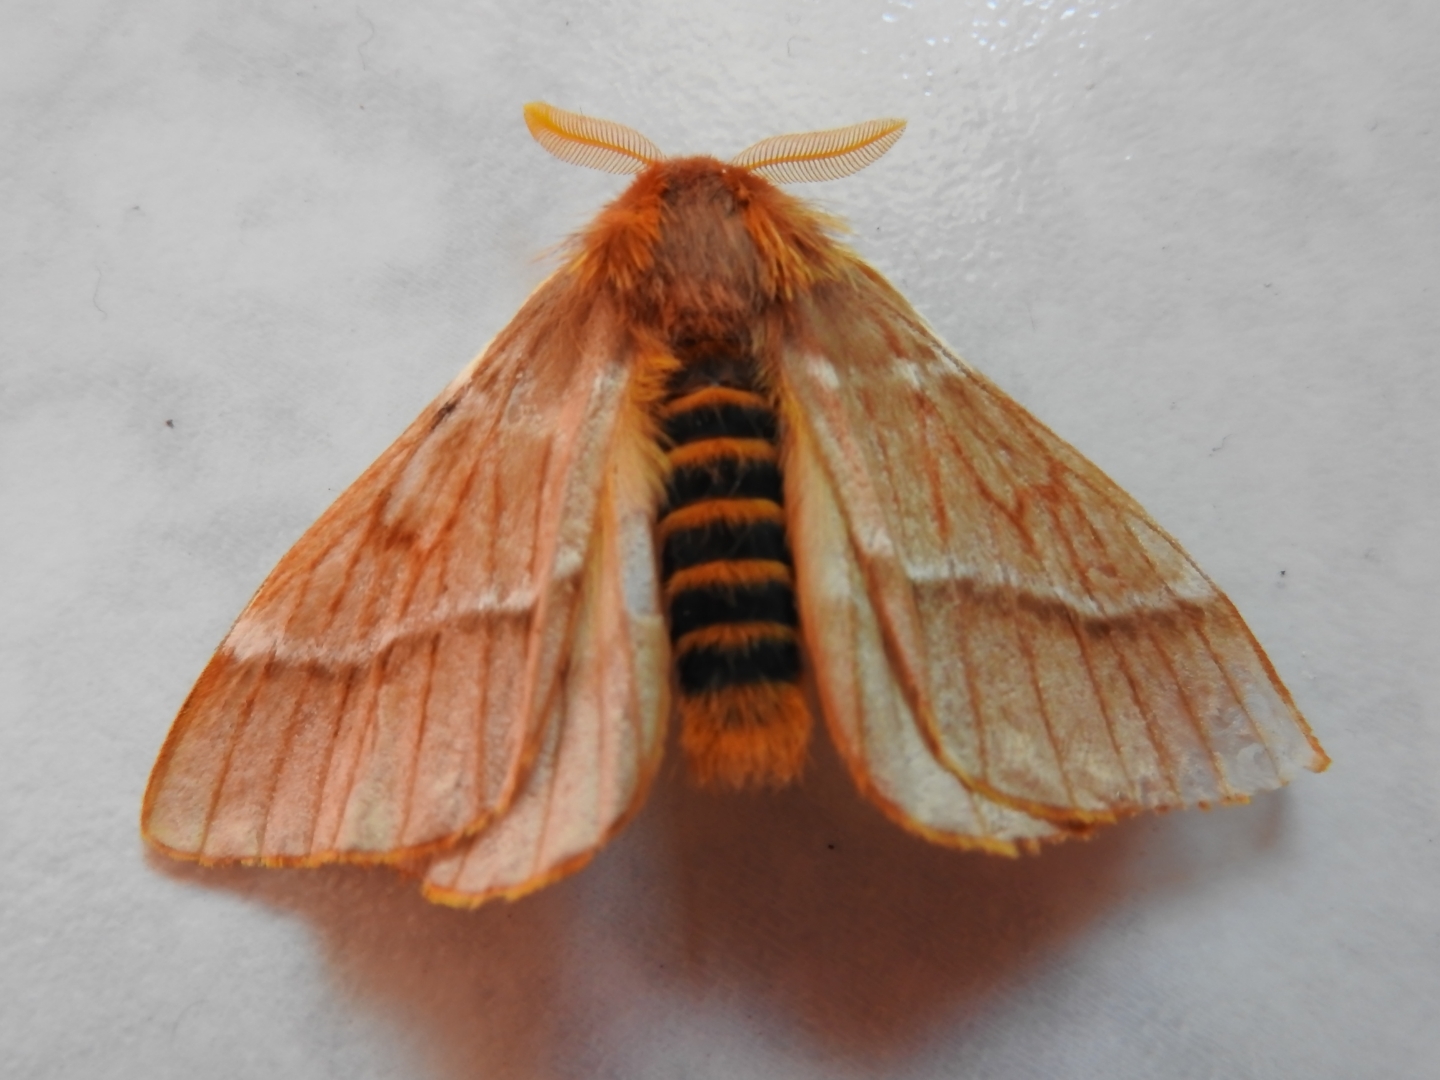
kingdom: Animalia
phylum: Arthropoda
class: Insecta
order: Lepidoptera
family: Saturniidae
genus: Lemaireodirphia
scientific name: Lemaireodirphia lasiocampina
